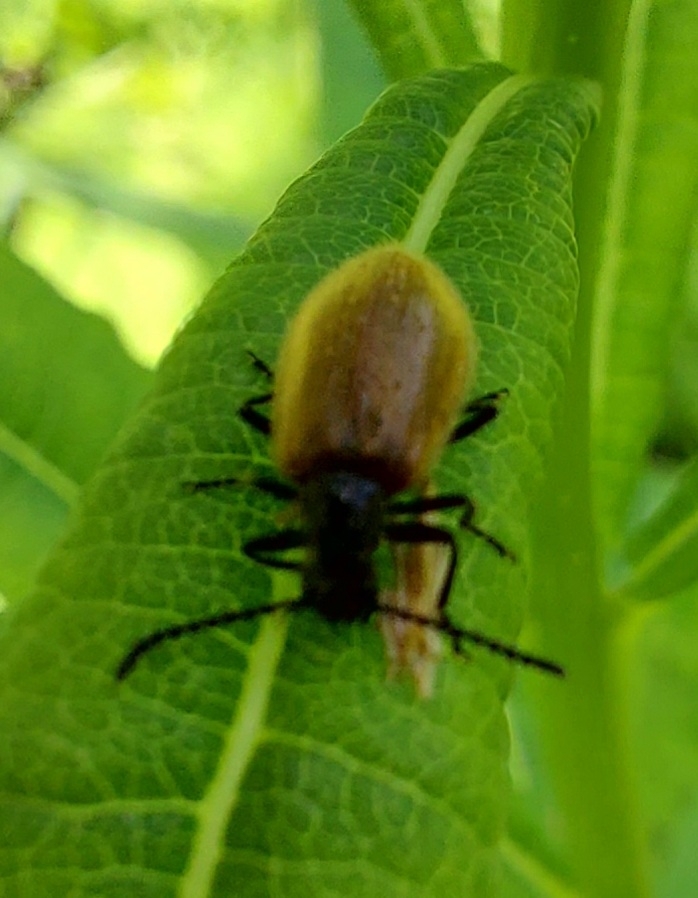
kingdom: Animalia
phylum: Arthropoda
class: Insecta
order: Coleoptera
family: Tenebrionidae
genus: Lagria
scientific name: Lagria hirta
